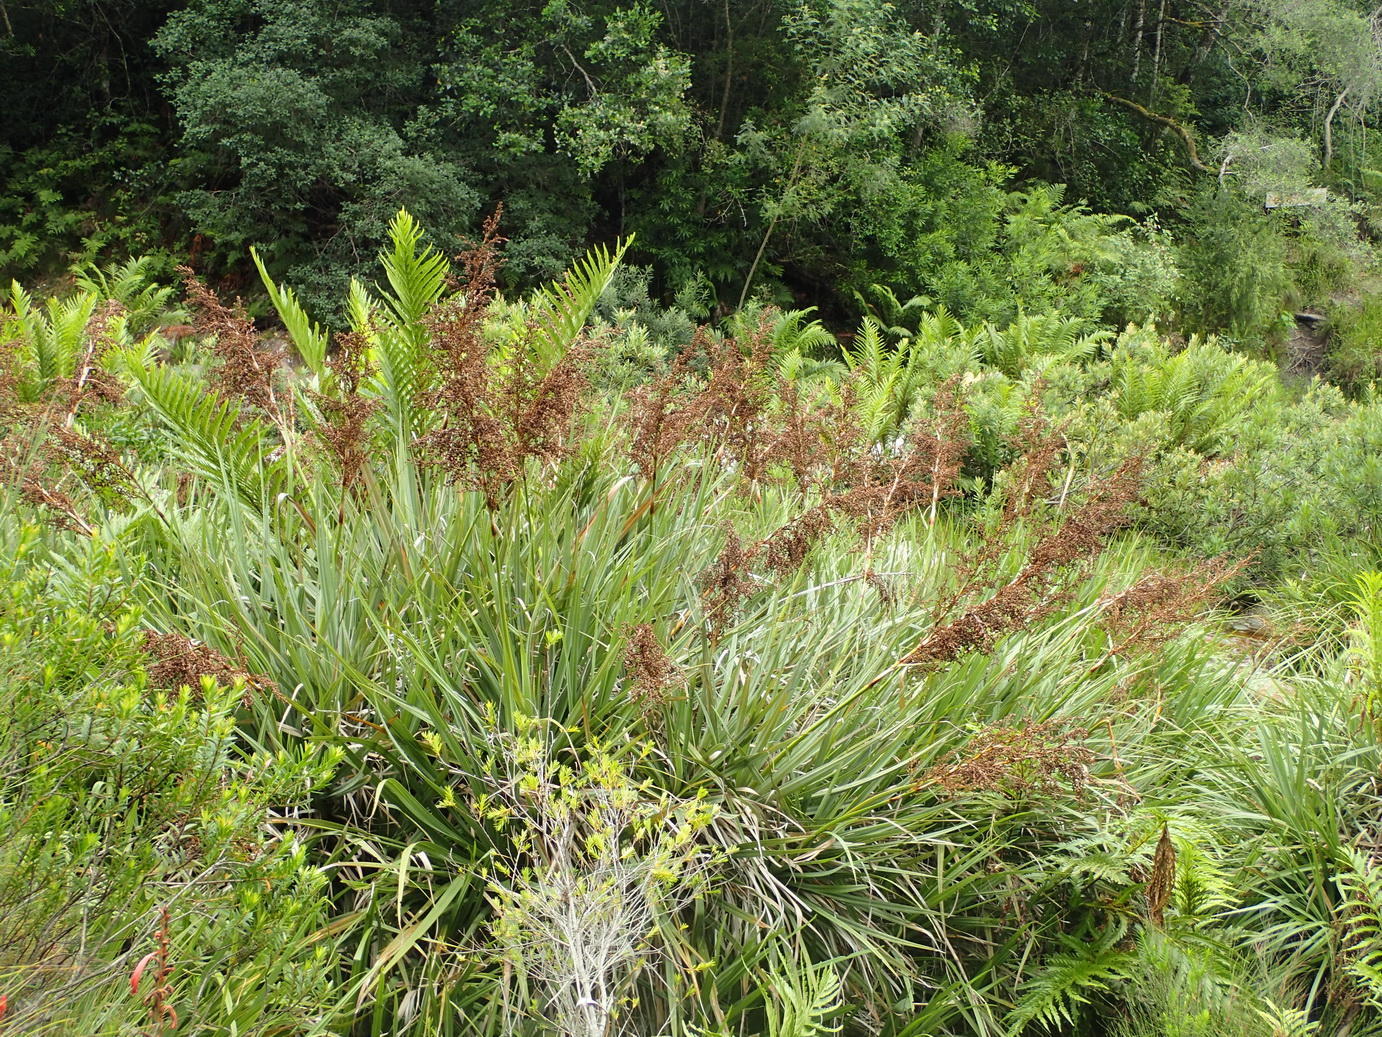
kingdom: Plantae
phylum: Tracheophyta
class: Liliopsida
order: Poales
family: Thurniaceae
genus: Prionium
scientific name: Prionium serratum
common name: Palmiet
